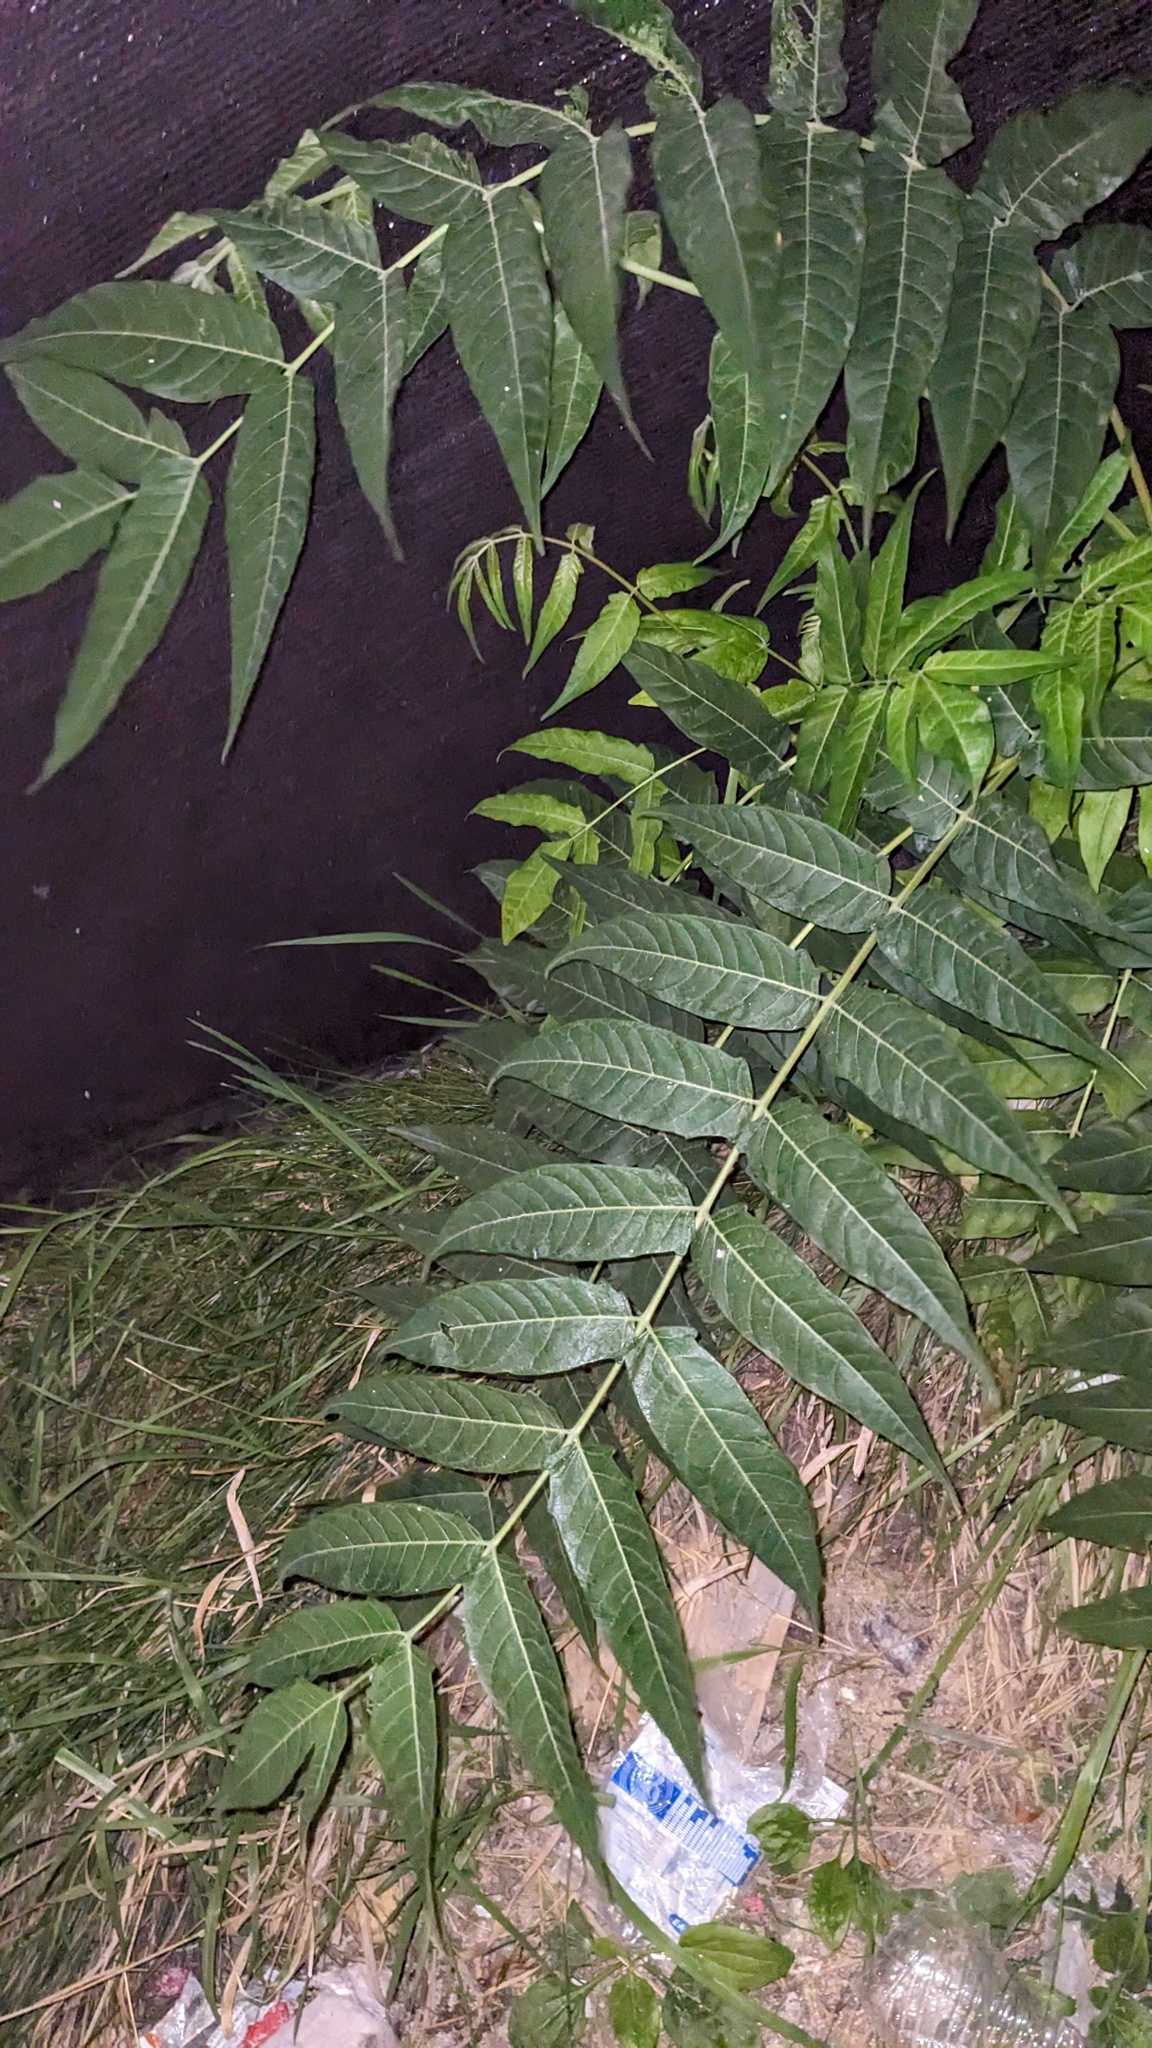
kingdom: Plantae
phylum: Tracheophyta
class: Magnoliopsida
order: Sapindales
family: Simaroubaceae
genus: Ailanthus
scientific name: Ailanthus altissima
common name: Tree-of-heaven
